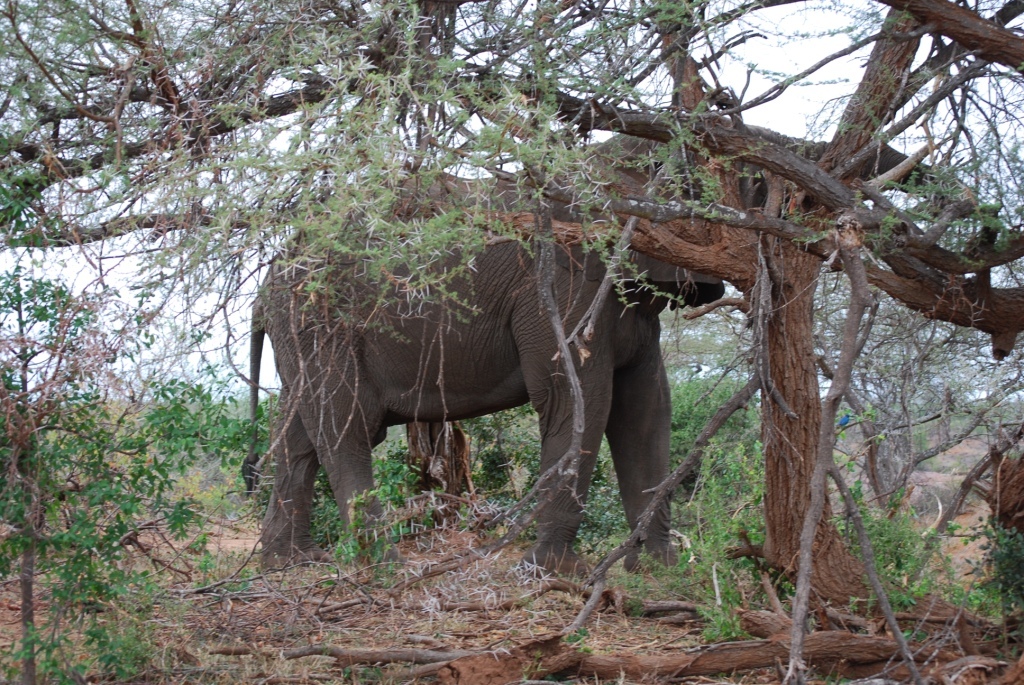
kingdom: Animalia
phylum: Chordata
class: Mammalia
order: Proboscidea
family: Elephantidae
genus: Loxodonta
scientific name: Loxodonta africana
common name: African elephant
